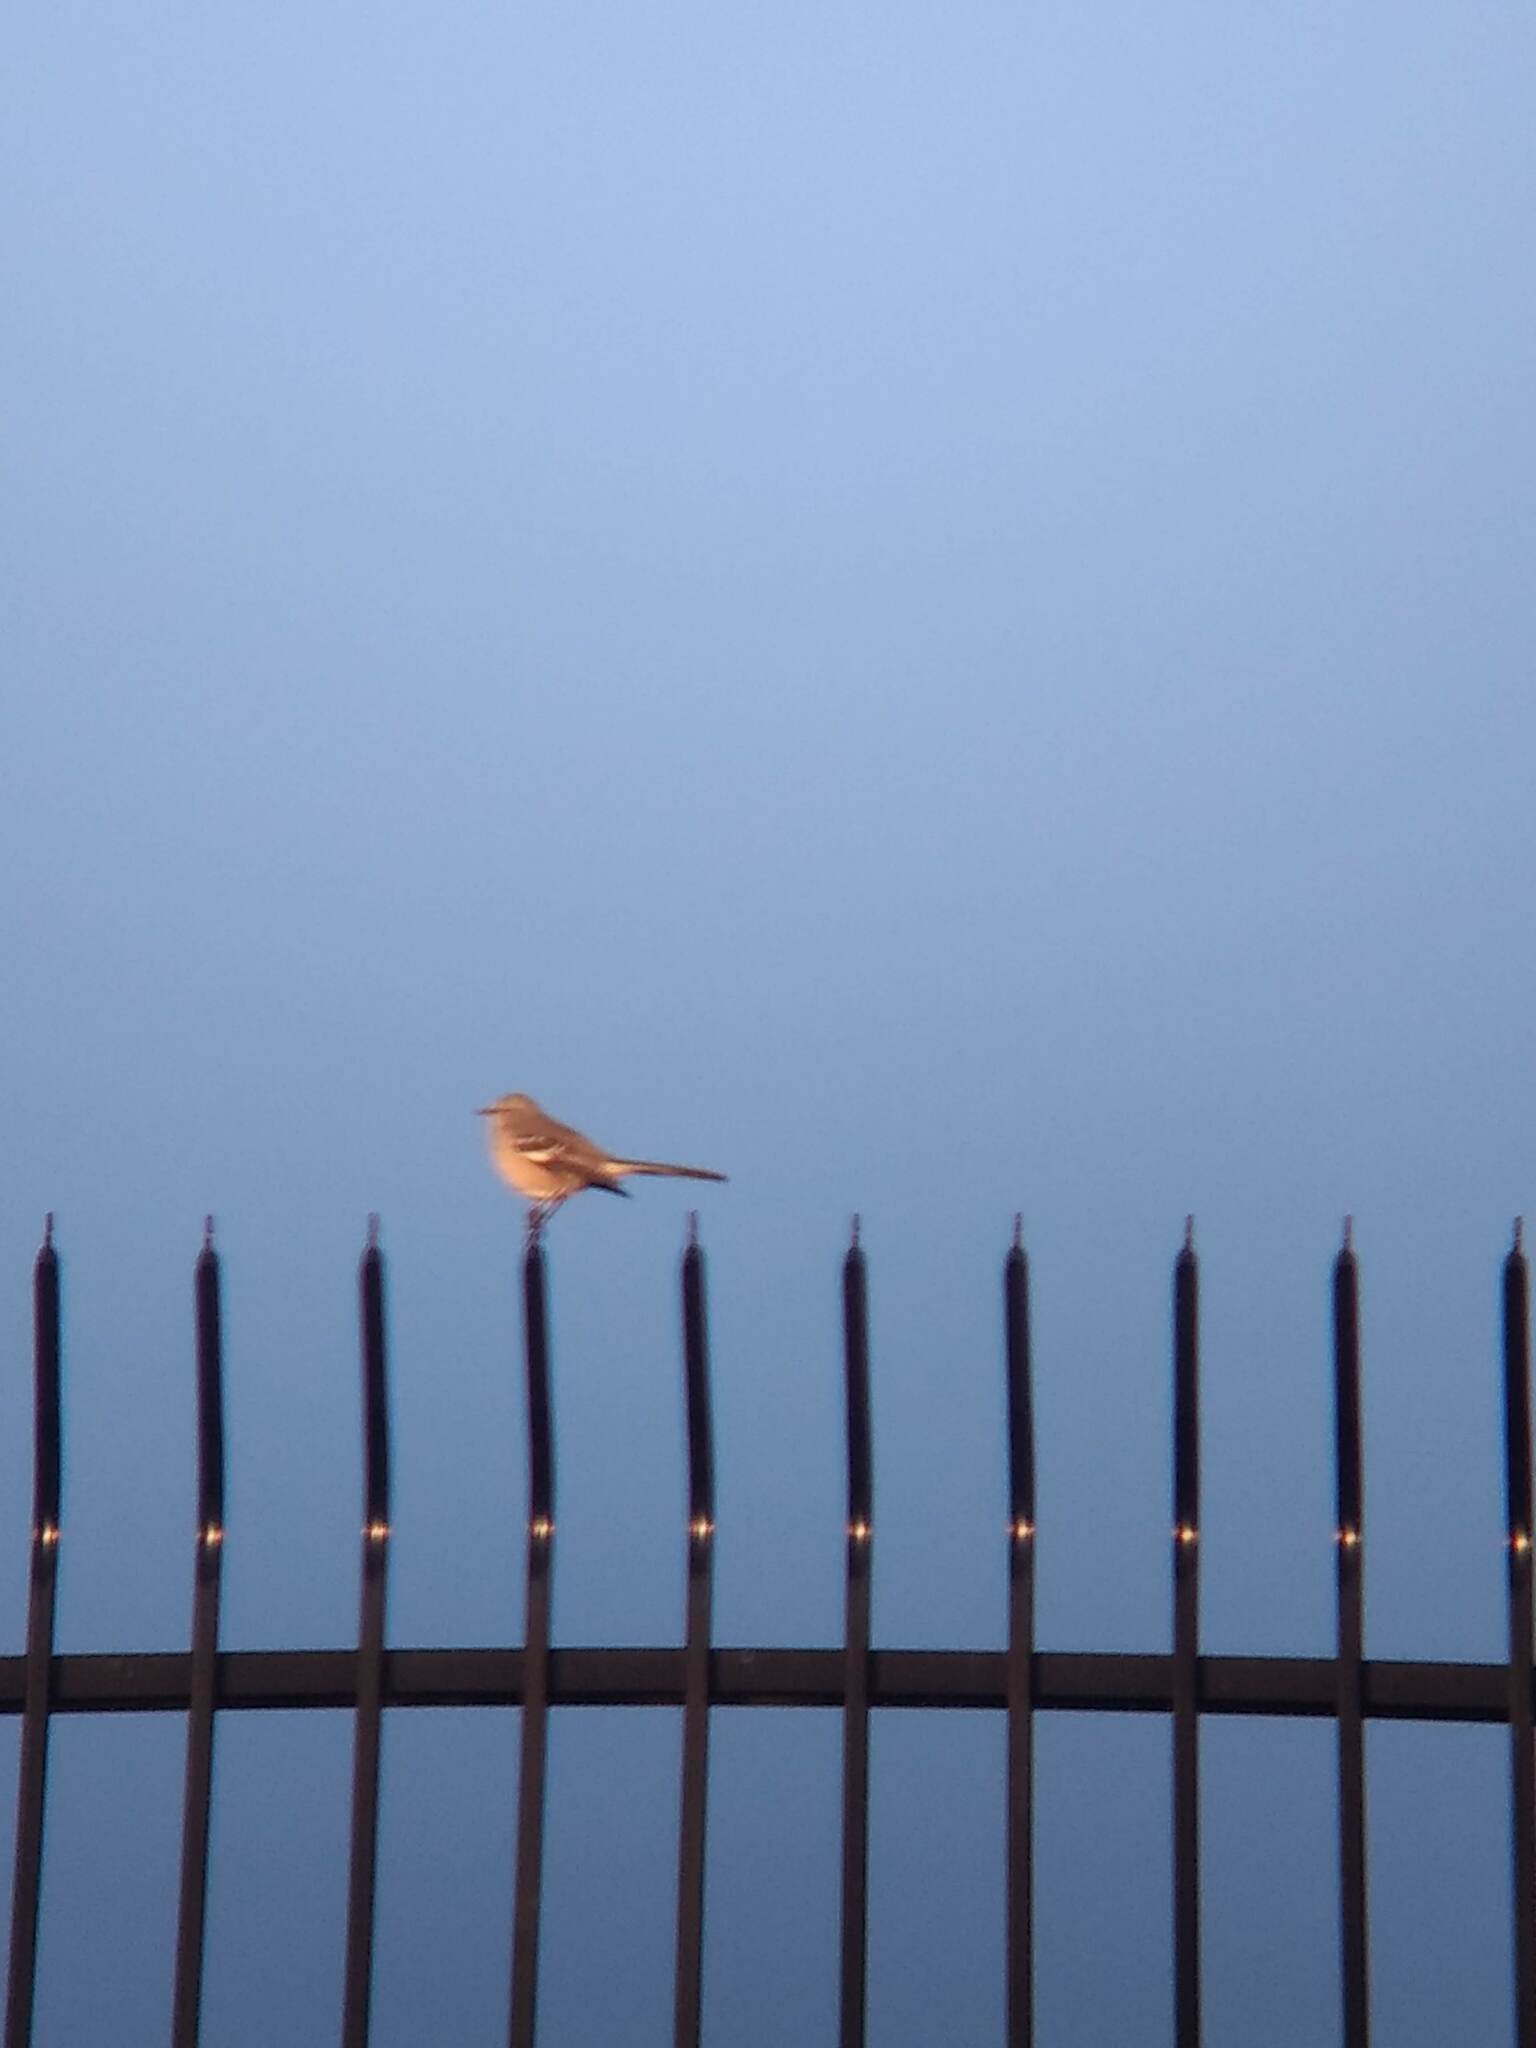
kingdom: Animalia
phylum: Chordata
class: Aves
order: Passeriformes
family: Mimidae
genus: Mimus
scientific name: Mimus polyglottos
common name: Northern mockingbird
